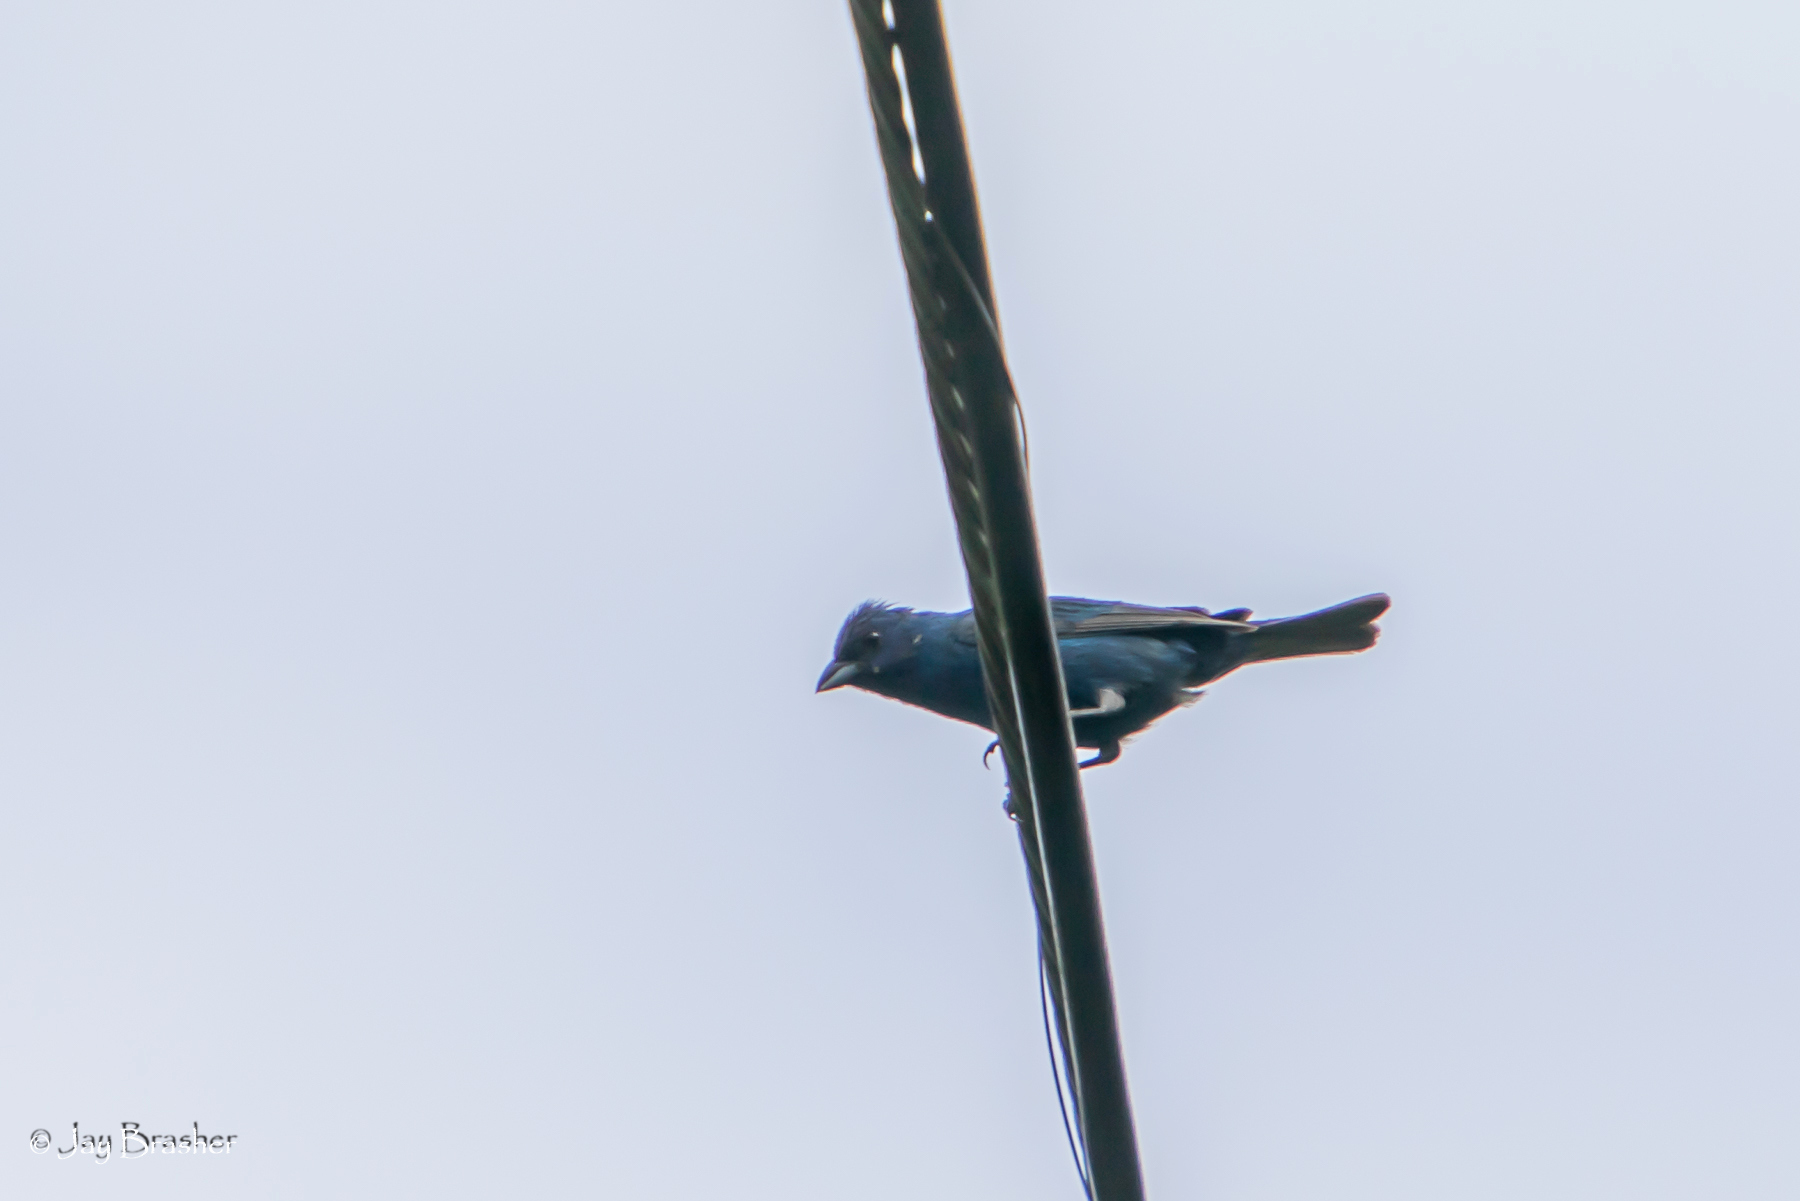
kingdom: Animalia
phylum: Chordata
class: Aves
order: Passeriformes
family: Cardinalidae
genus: Passerina
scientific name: Passerina cyanea
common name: Indigo bunting
